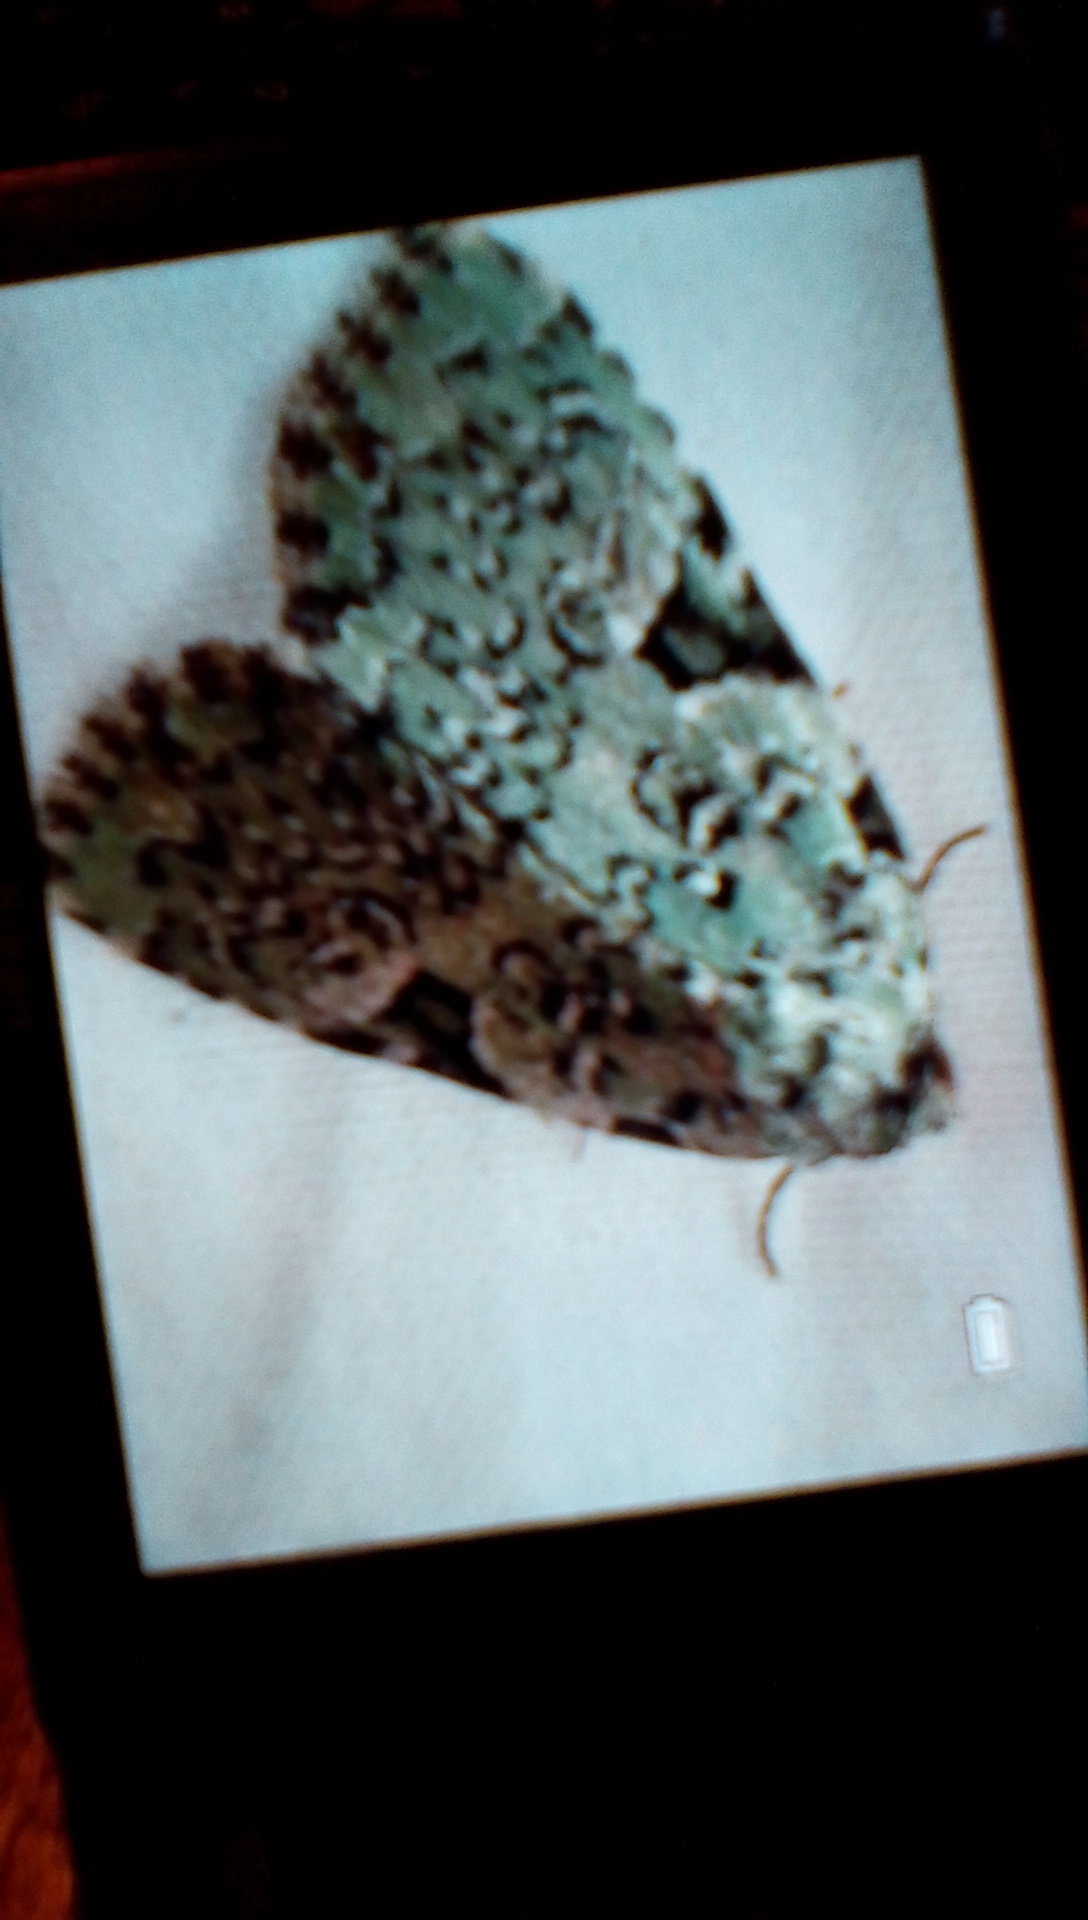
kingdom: Animalia
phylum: Arthropoda
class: Insecta
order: Lepidoptera
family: Noctuidae
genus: Leuconycta
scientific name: Leuconycta diphteroides
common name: Green leuconycta moth
